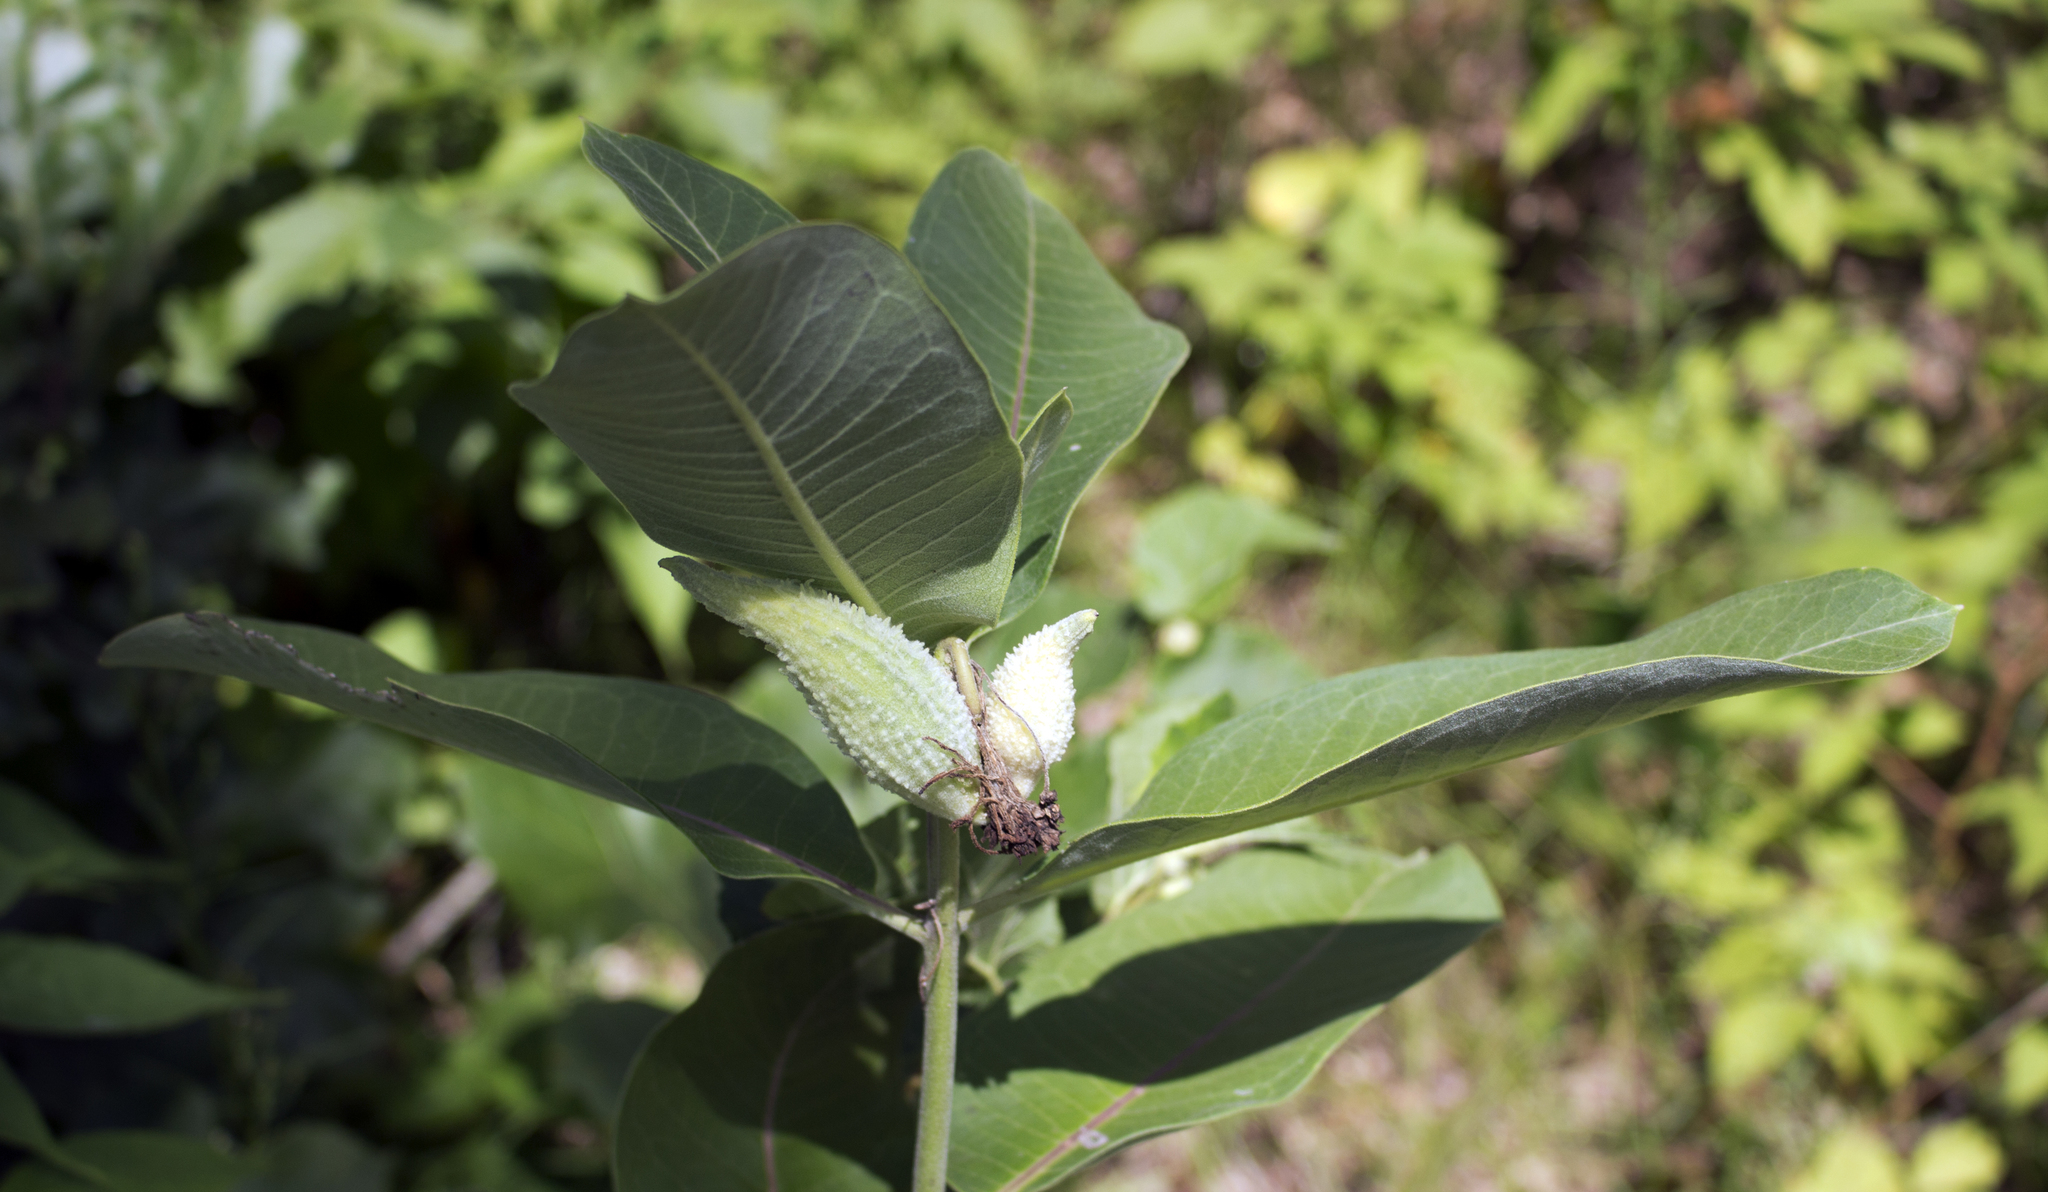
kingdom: Plantae
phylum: Tracheophyta
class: Magnoliopsida
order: Gentianales
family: Apocynaceae
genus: Asclepias
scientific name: Asclepias syriaca
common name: Common milkweed
